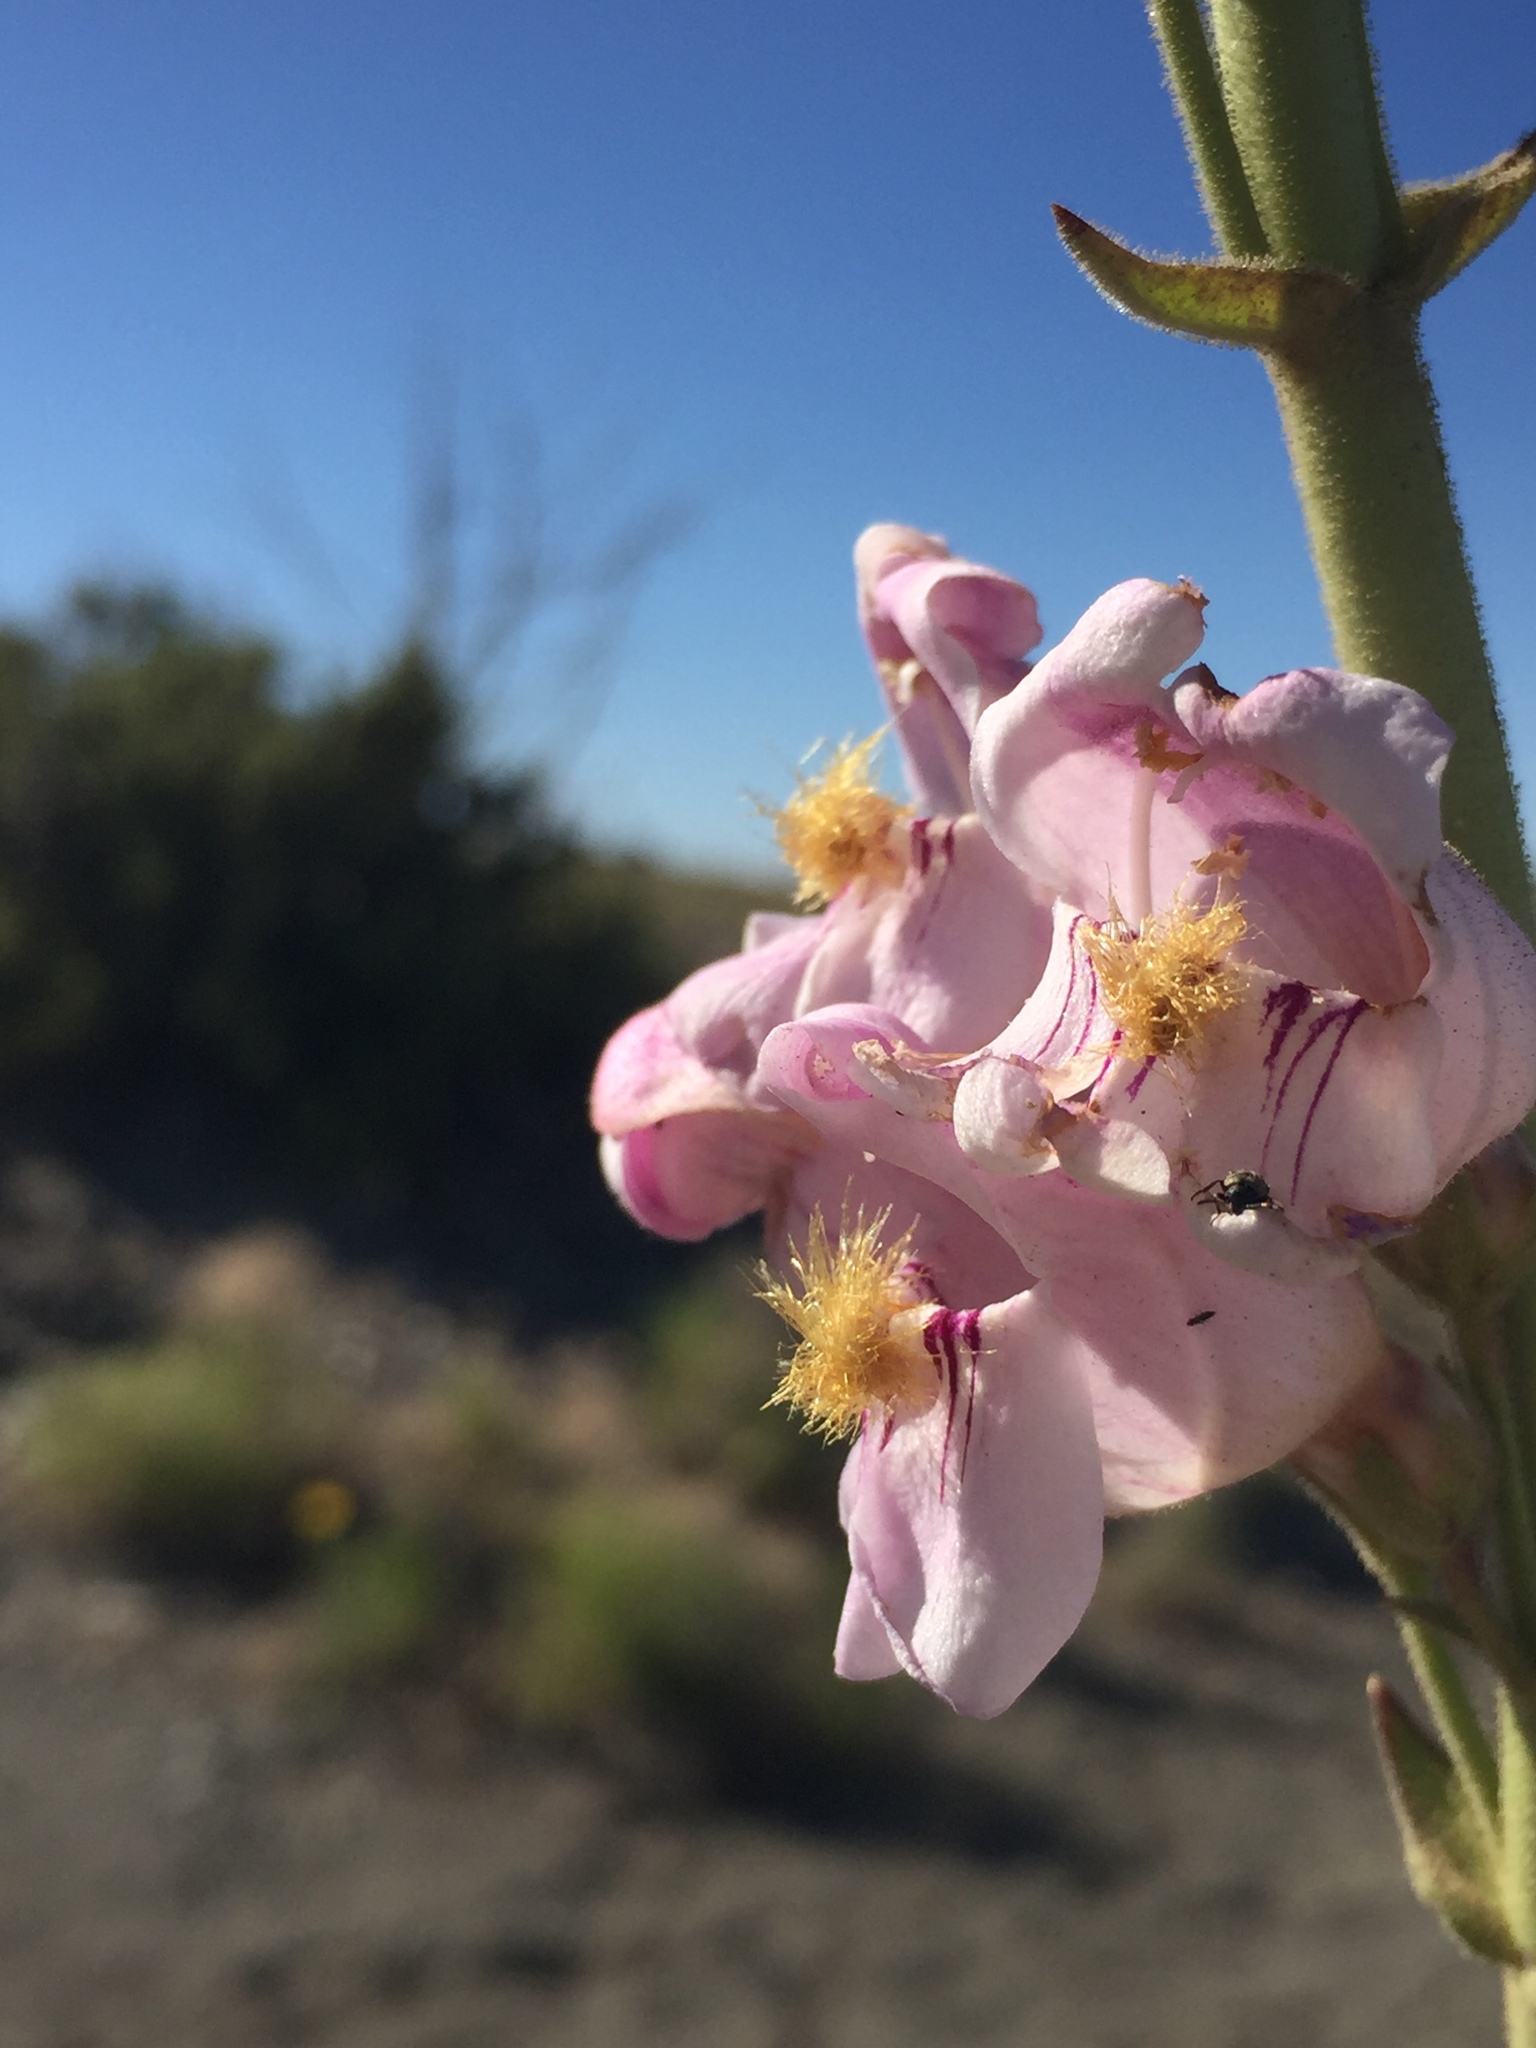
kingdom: Plantae
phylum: Tracheophyta
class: Magnoliopsida
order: Lamiales
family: Plantaginaceae
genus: Penstemon
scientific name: Penstemon palmeri
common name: Palmer penstemon
